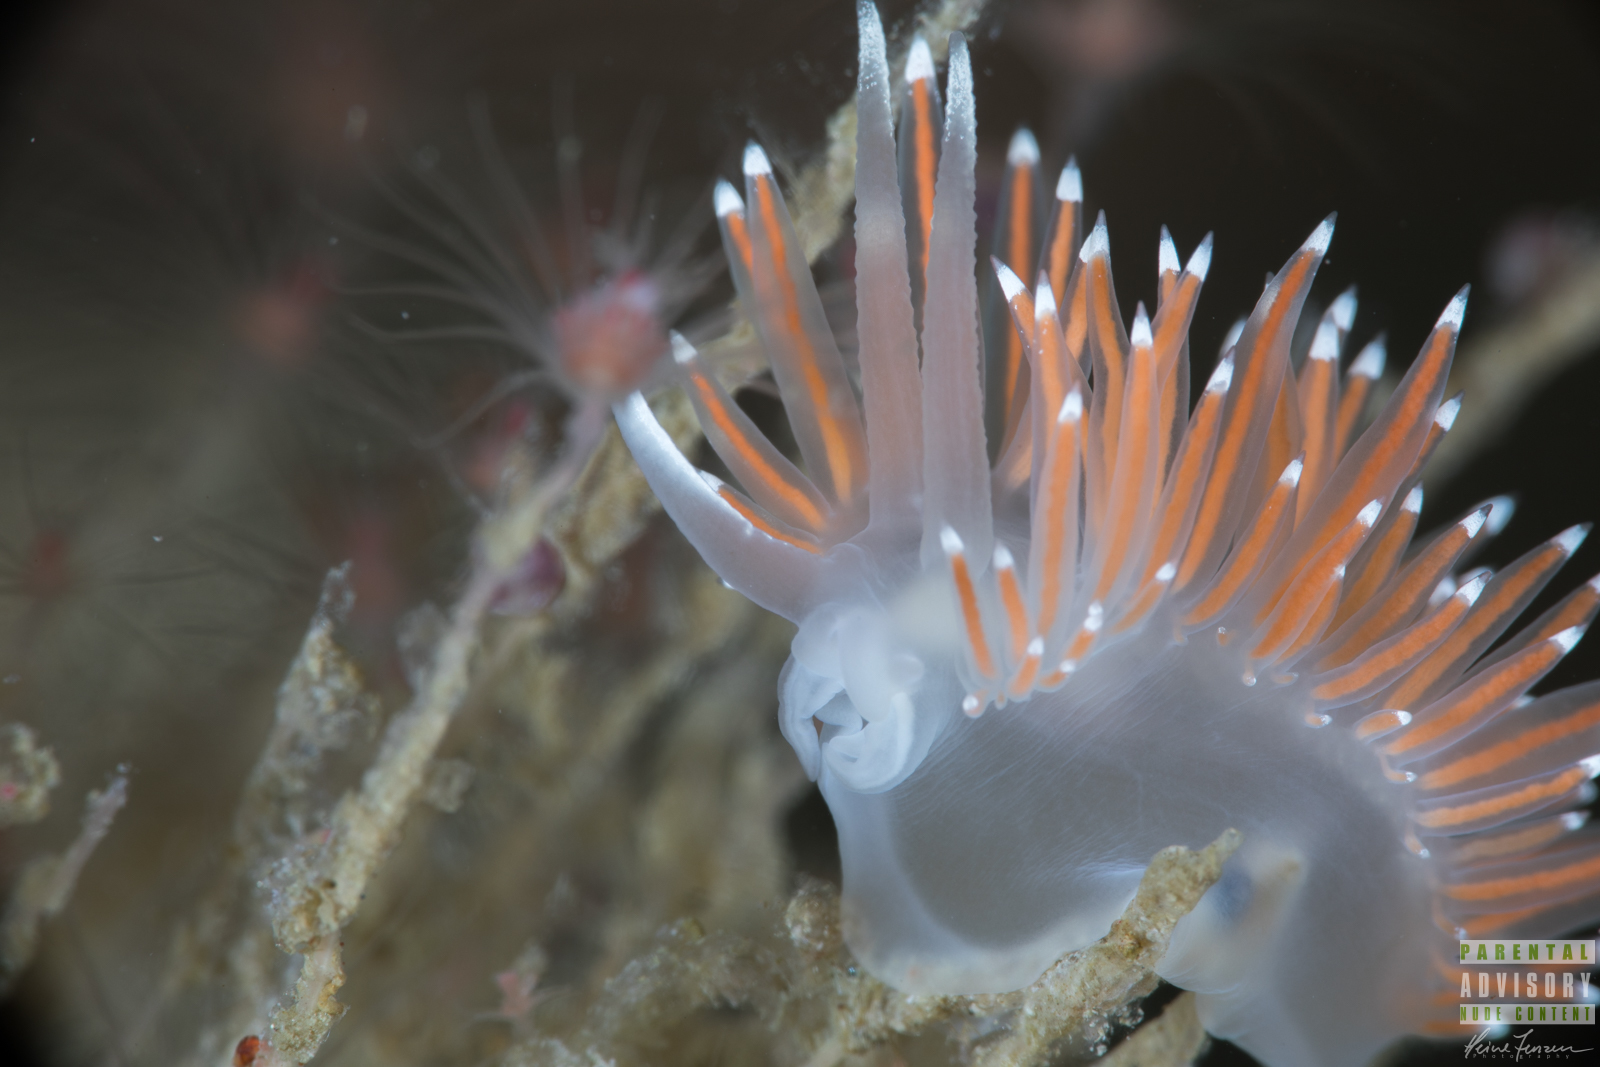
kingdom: Animalia
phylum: Mollusca
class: Gastropoda
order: Nudibranchia
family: Coryphellidae
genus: Coryphella
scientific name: Coryphella browni
